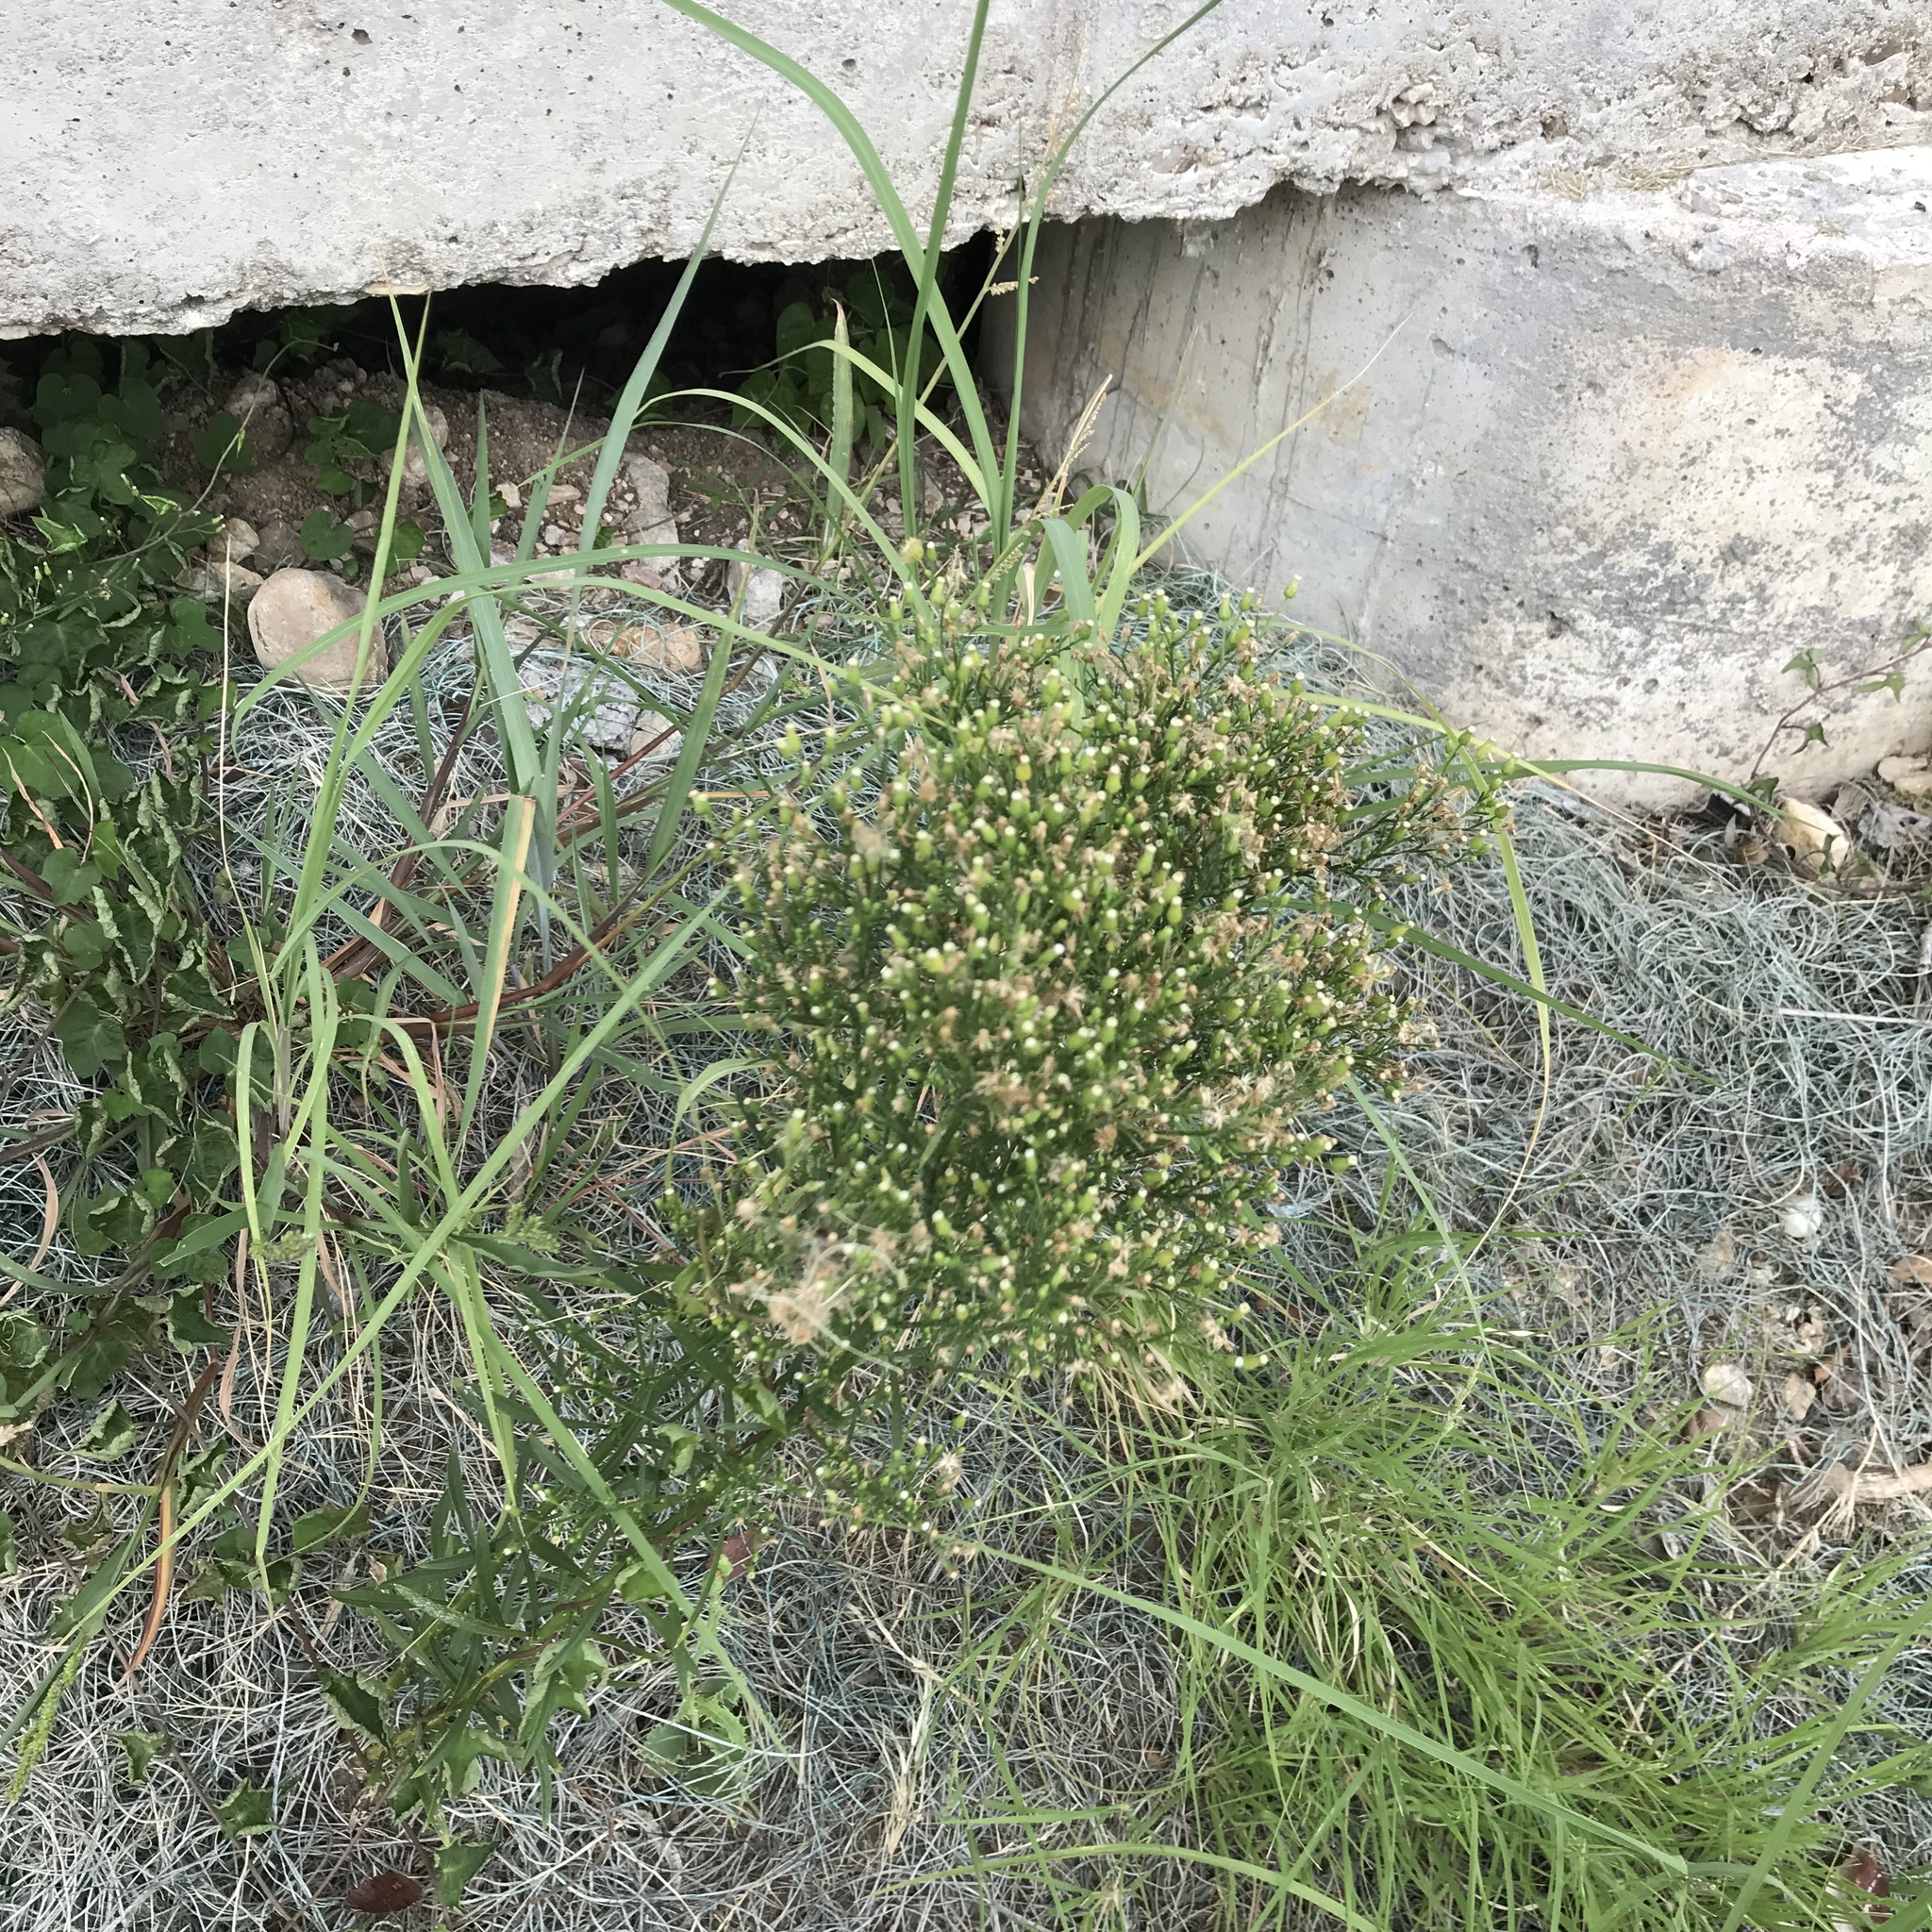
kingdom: Plantae
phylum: Tracheophyta
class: Magnoliopsida
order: Asterales
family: Asteraceae
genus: Erigeron
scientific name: Erigeron canadensis
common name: Canadian fleabane
